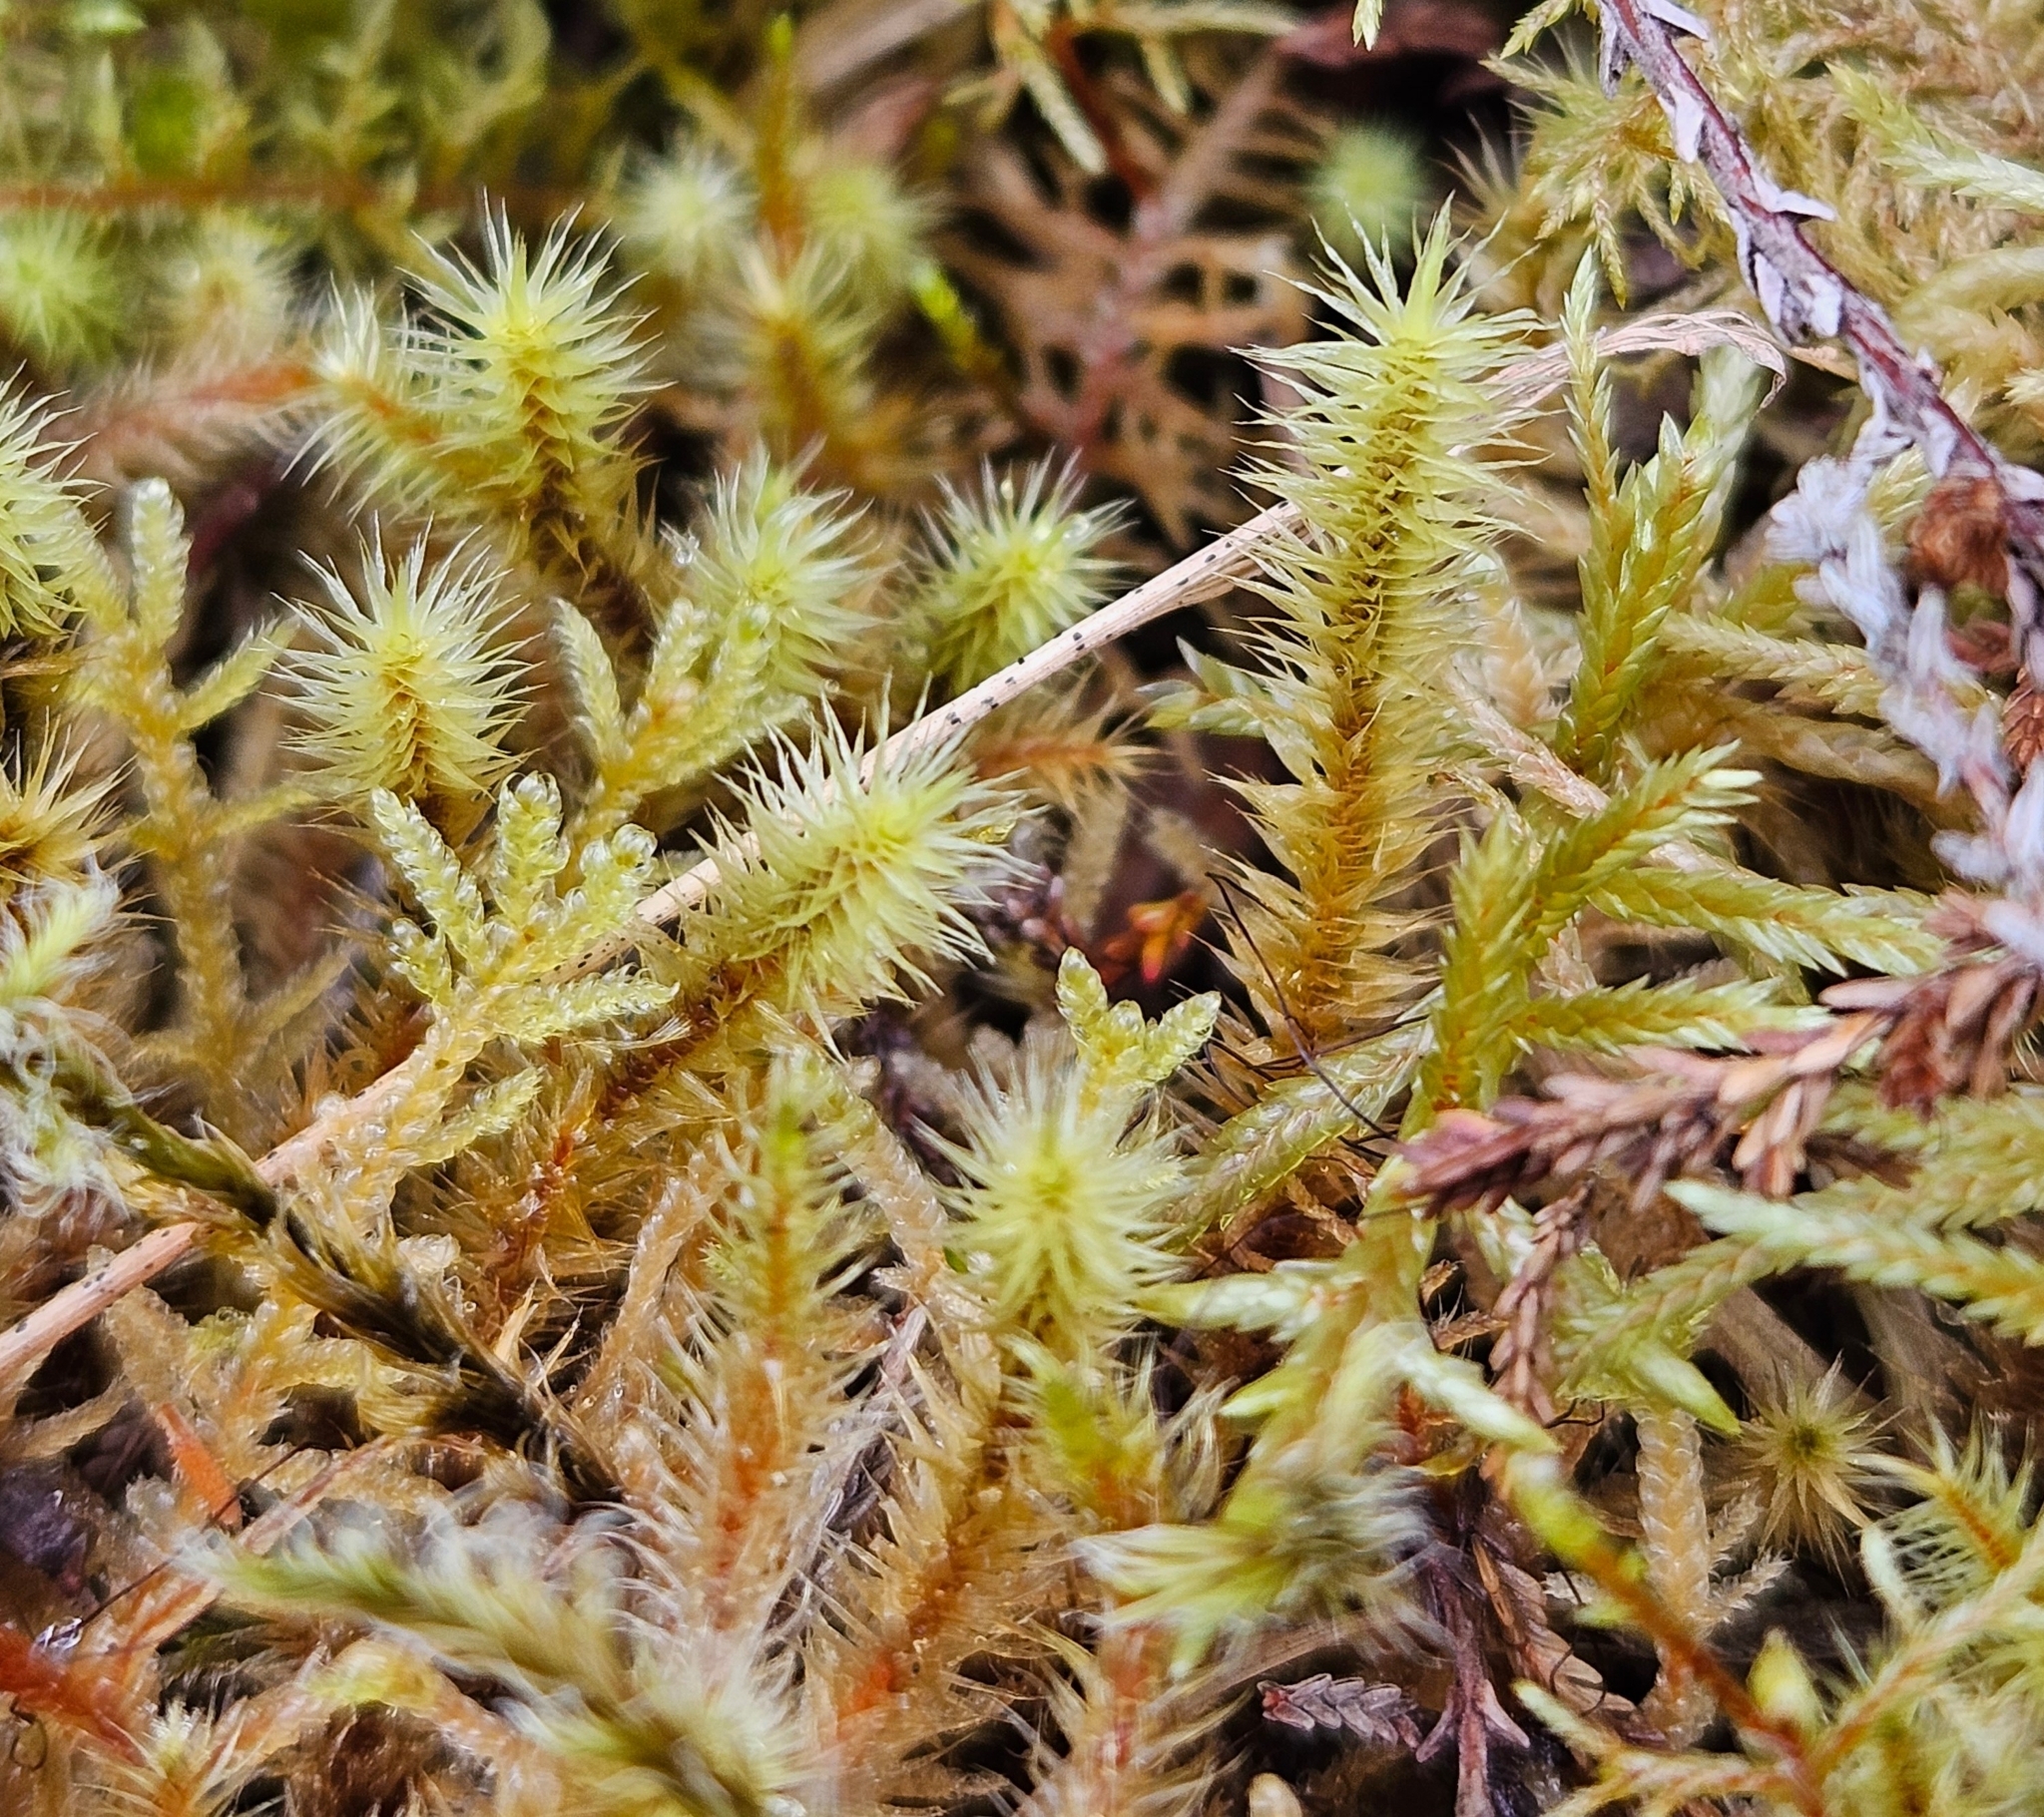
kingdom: Plantae
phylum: Bryophyta
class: Bryopsida
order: Bartramiales
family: Bartramiaceae
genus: Breutelia
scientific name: Breutelia chrysocoma
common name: Bottle-brush moss
